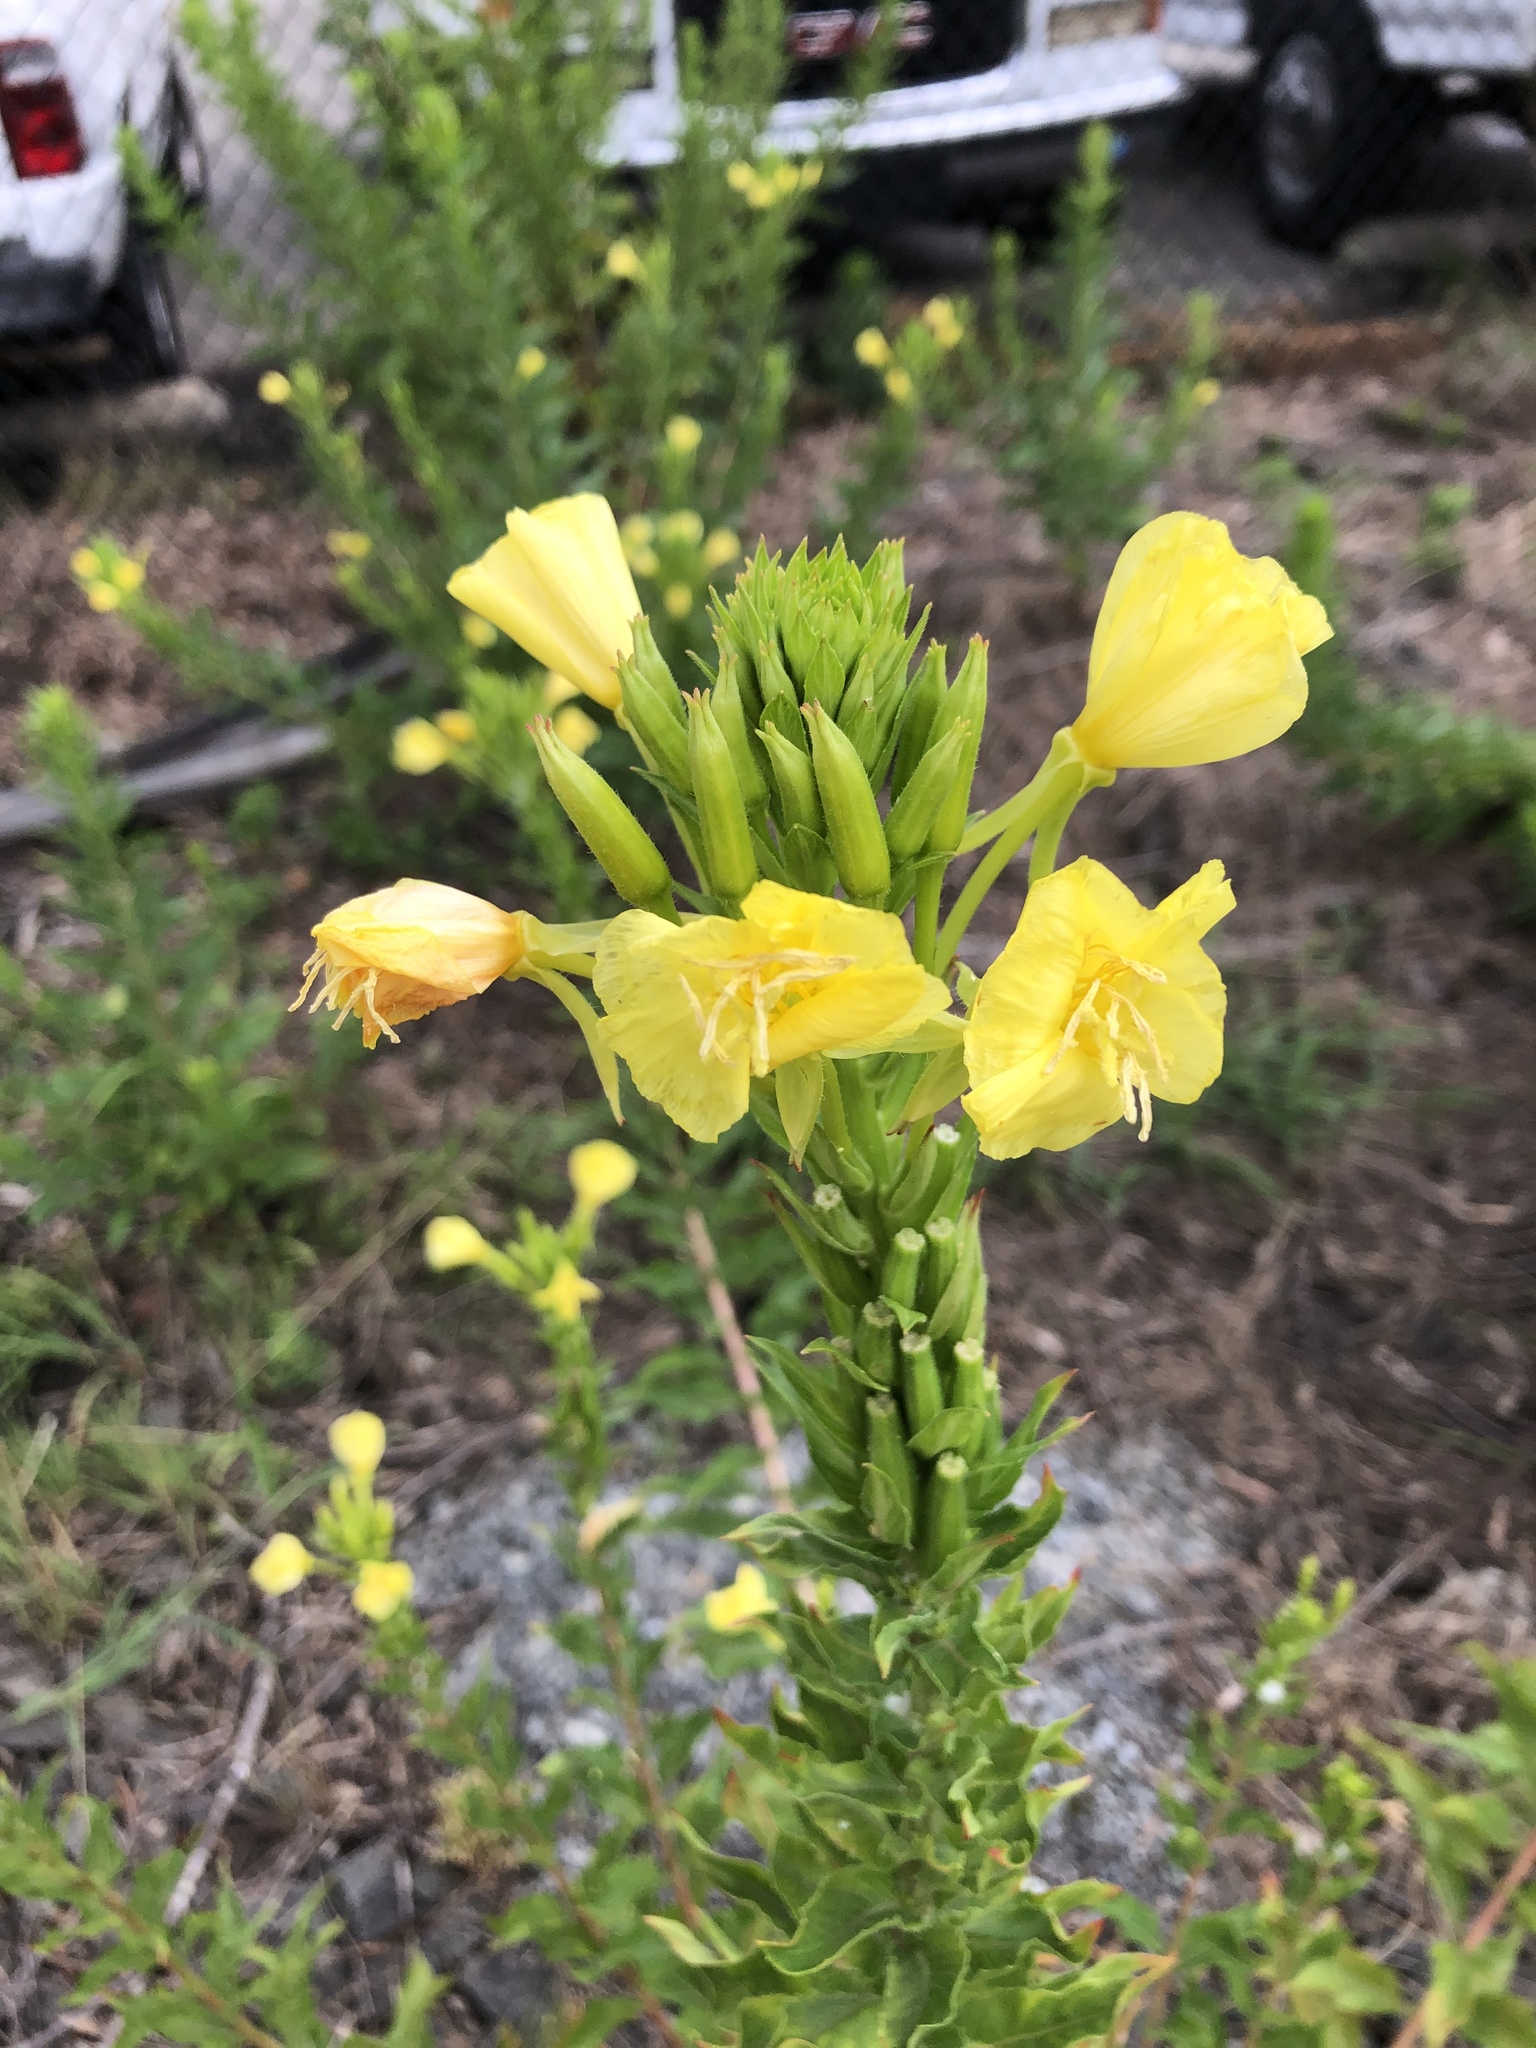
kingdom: Plantae
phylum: Tracheophyta
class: Magnoliopsida
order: Myrtales
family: Onagraceae
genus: Oenothera
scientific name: Oenothera biennis
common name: Common evening-primrose
